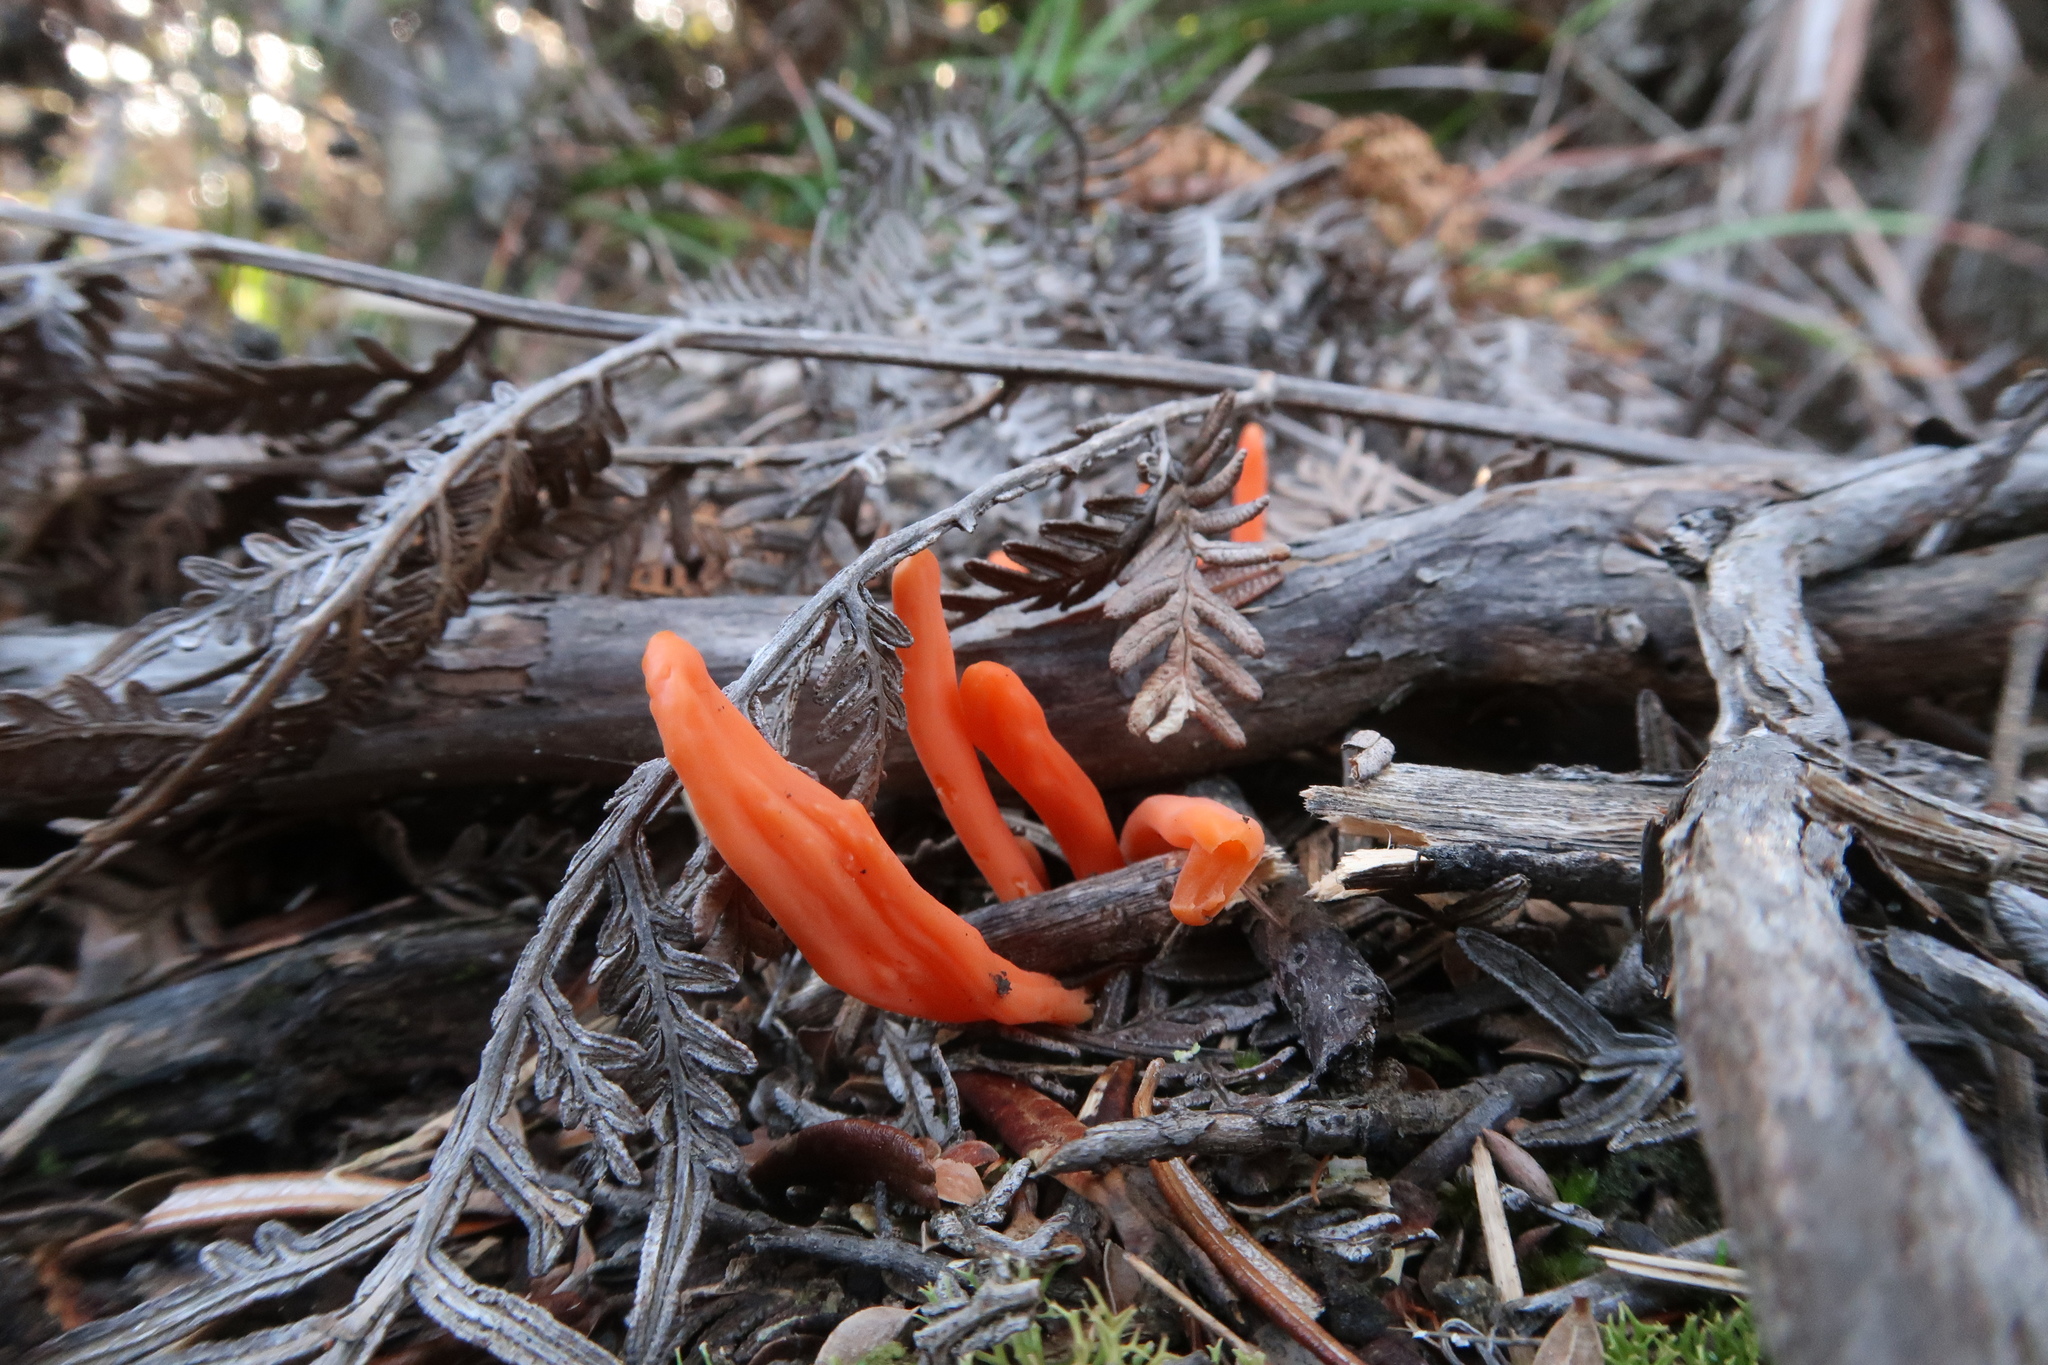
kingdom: Fungi
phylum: Basidiomycota
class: Agaricomycetes
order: Agaricales
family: Clavariaceae
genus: Clavulinopsis
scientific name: Clavulinopsis sulcata
